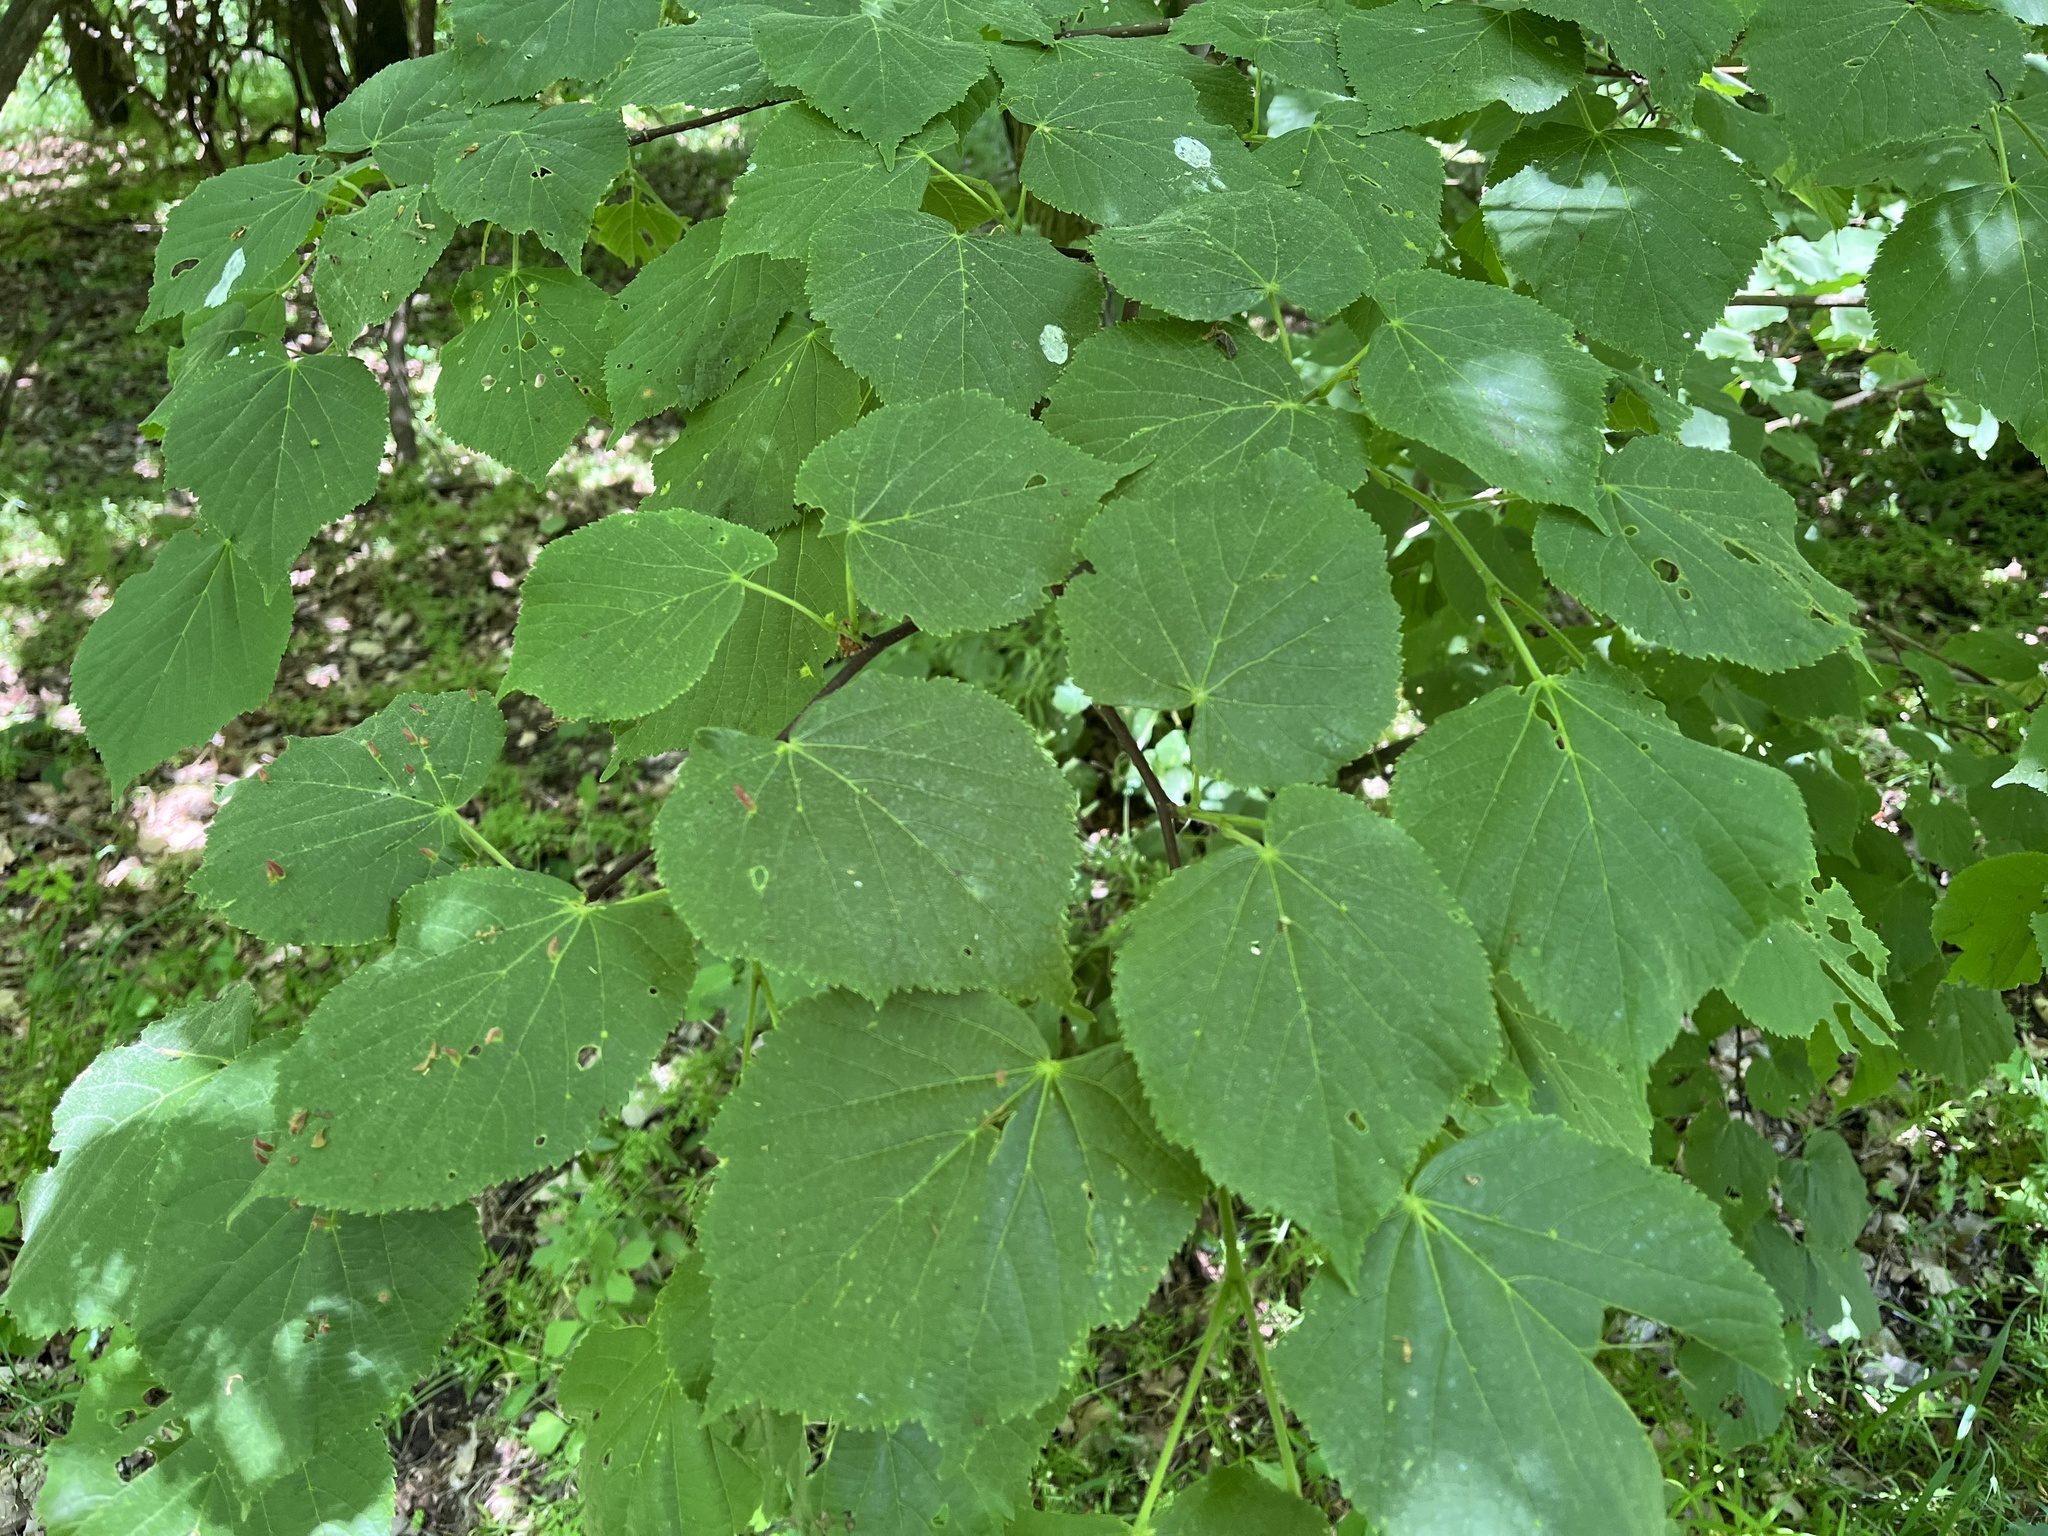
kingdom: Plantae
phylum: Tracheophyta
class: Magnoliopsida
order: Malvales
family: Malvaceae
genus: Tilia
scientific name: Tilia cordata
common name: Small-leaved lime
